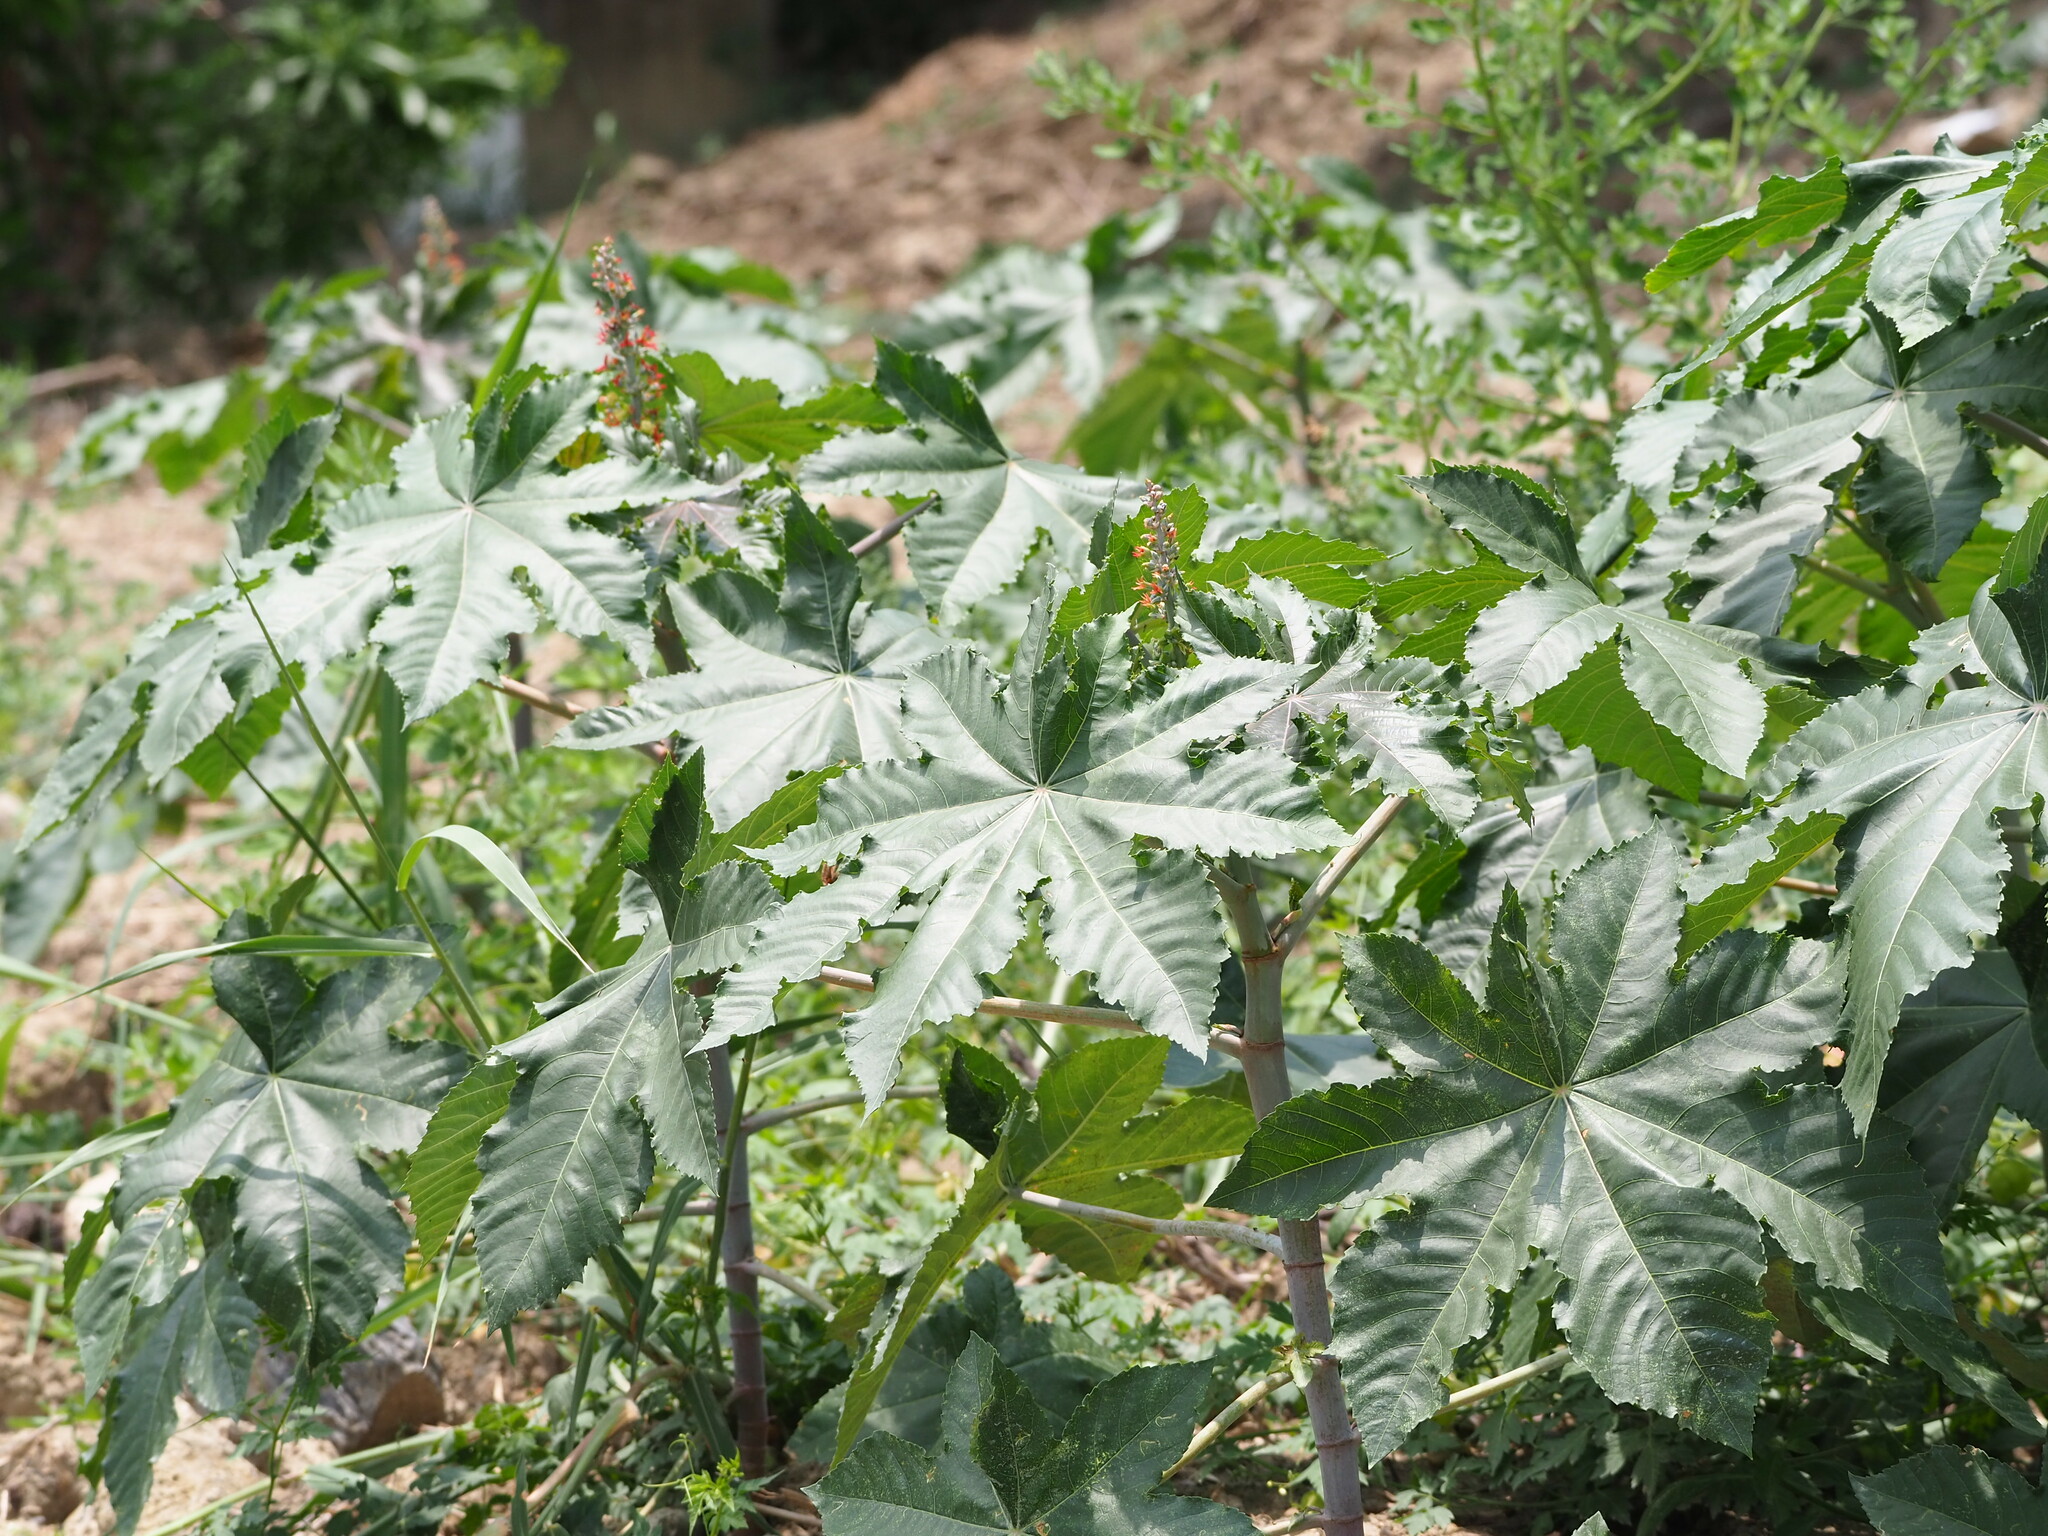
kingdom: Plantae
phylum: Tracheophyta
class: Magnoliopsida
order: Malpighiales
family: Euphorbiaceae
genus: Ricinus
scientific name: Ricinus communis
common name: Castor-oil-plant
